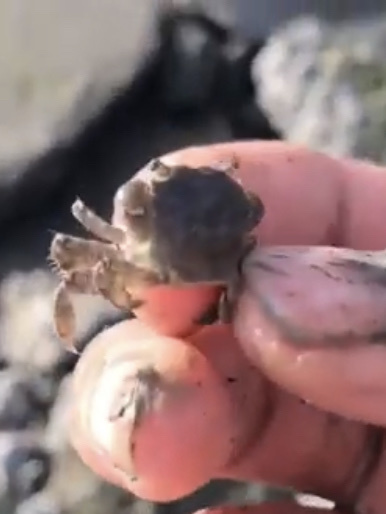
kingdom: Animalia
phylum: Arthropoda
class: Malacostraca
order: Decapoda
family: Varunidae
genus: Hemigrapsus
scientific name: Hemigrapsus oregonensis
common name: Yellow shore crab
